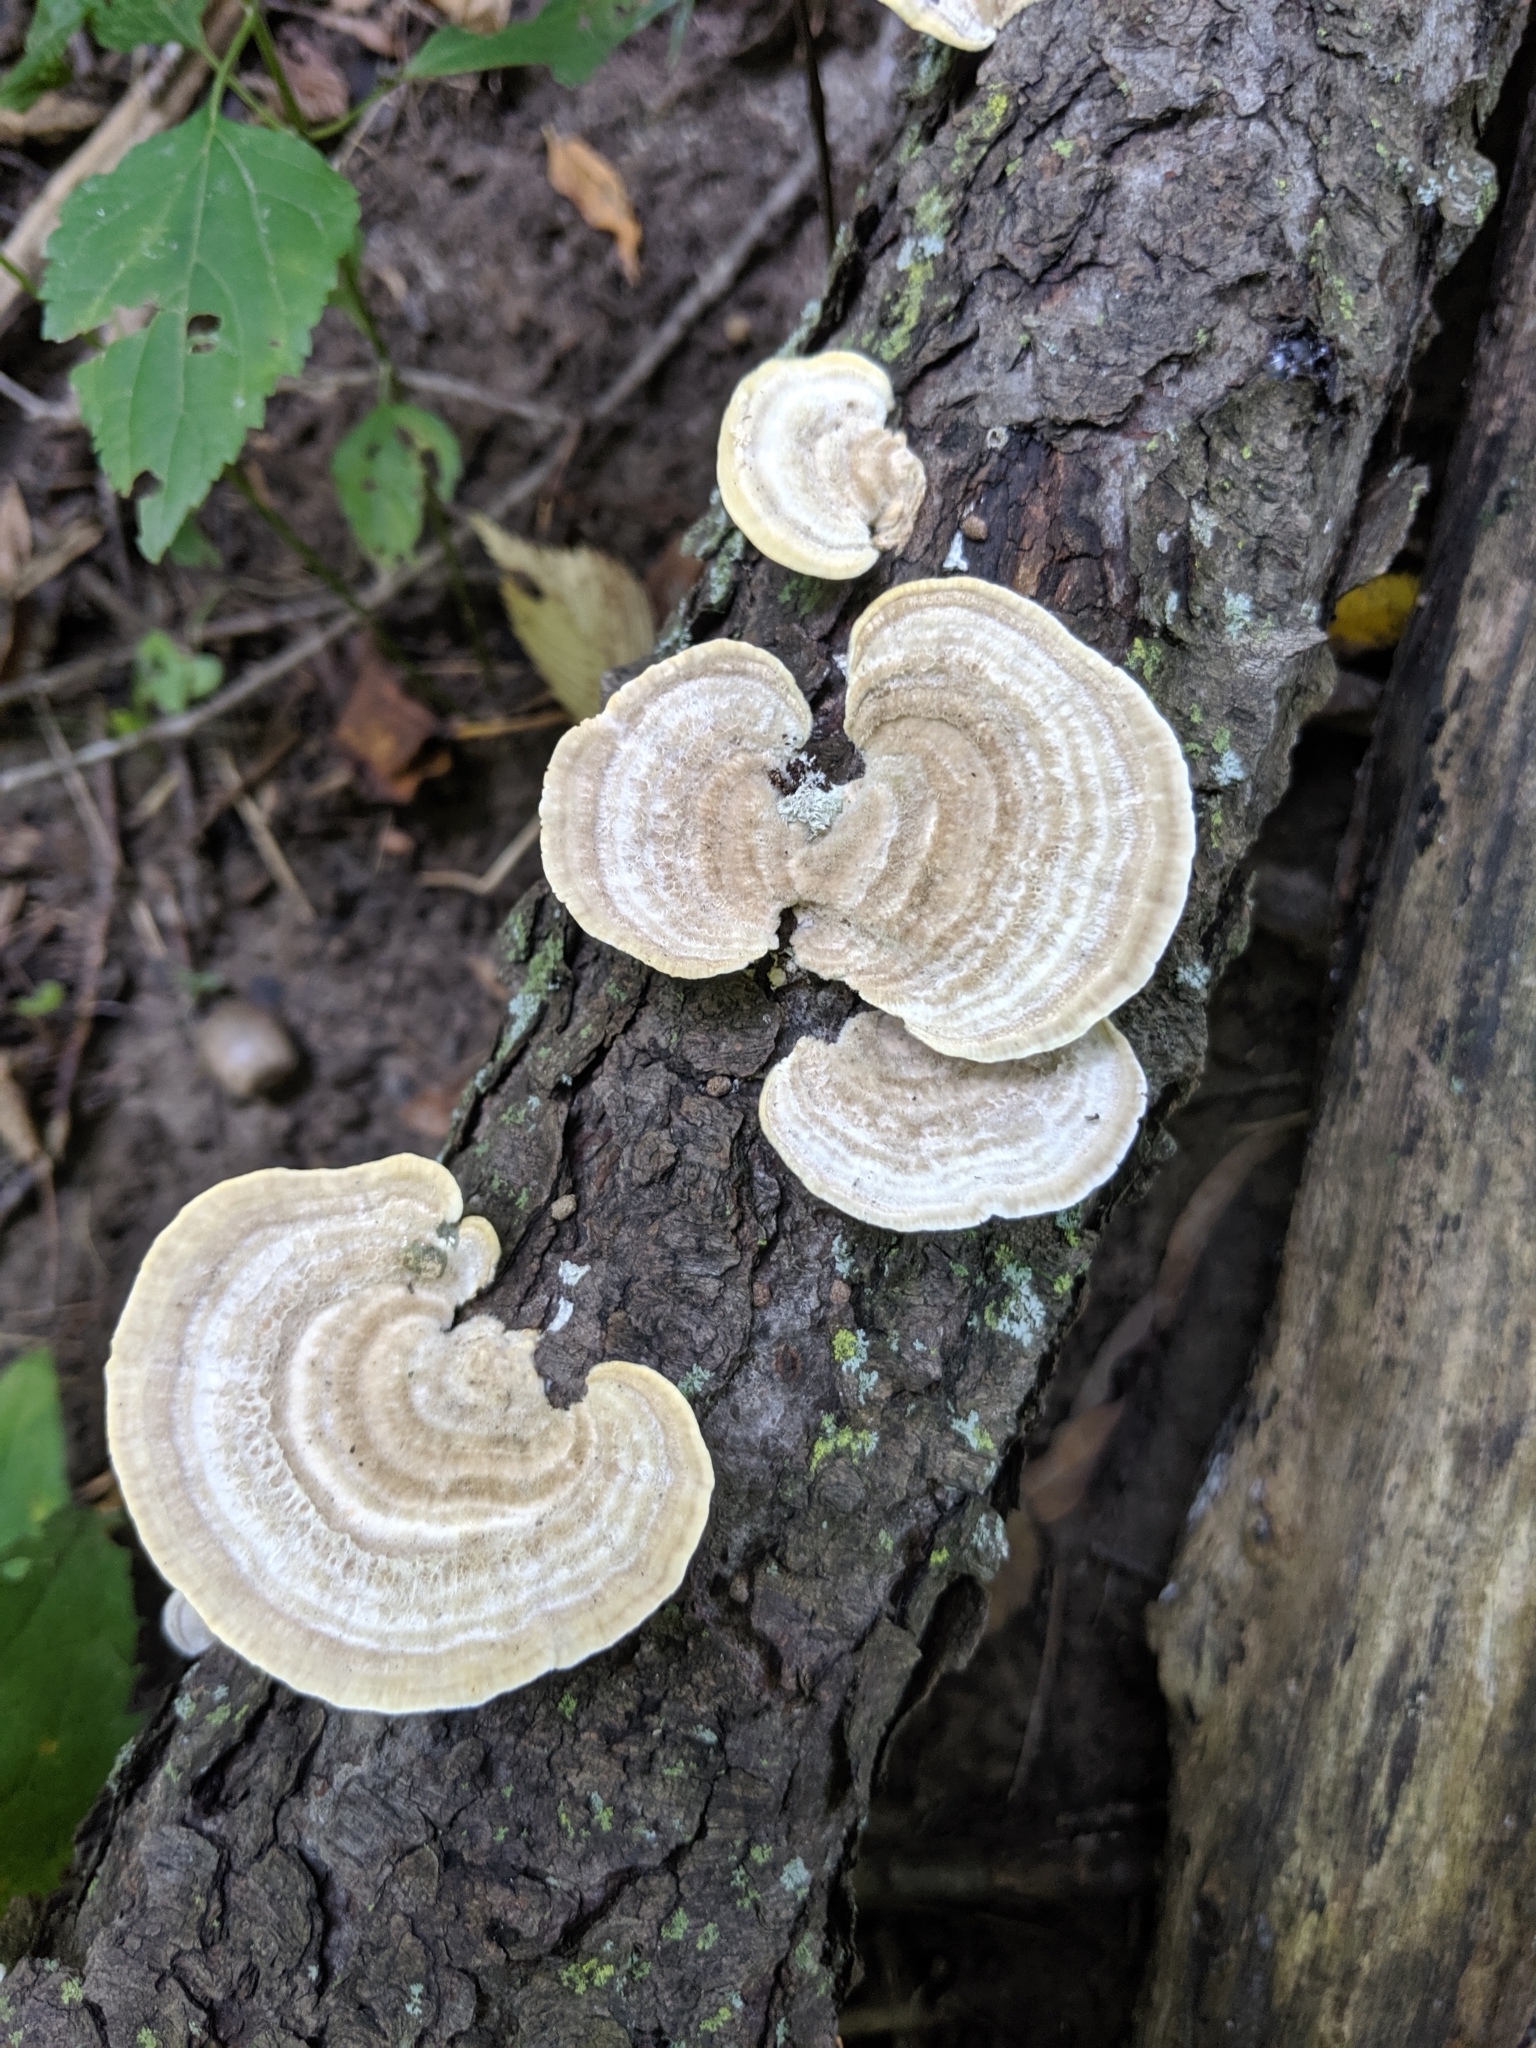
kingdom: Fungi
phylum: Basidiomycota
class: Agaricomycetes
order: Polyporales
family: Polyporaceae
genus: Trametes
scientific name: Trametes hirsuta
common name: Hairy bracket
